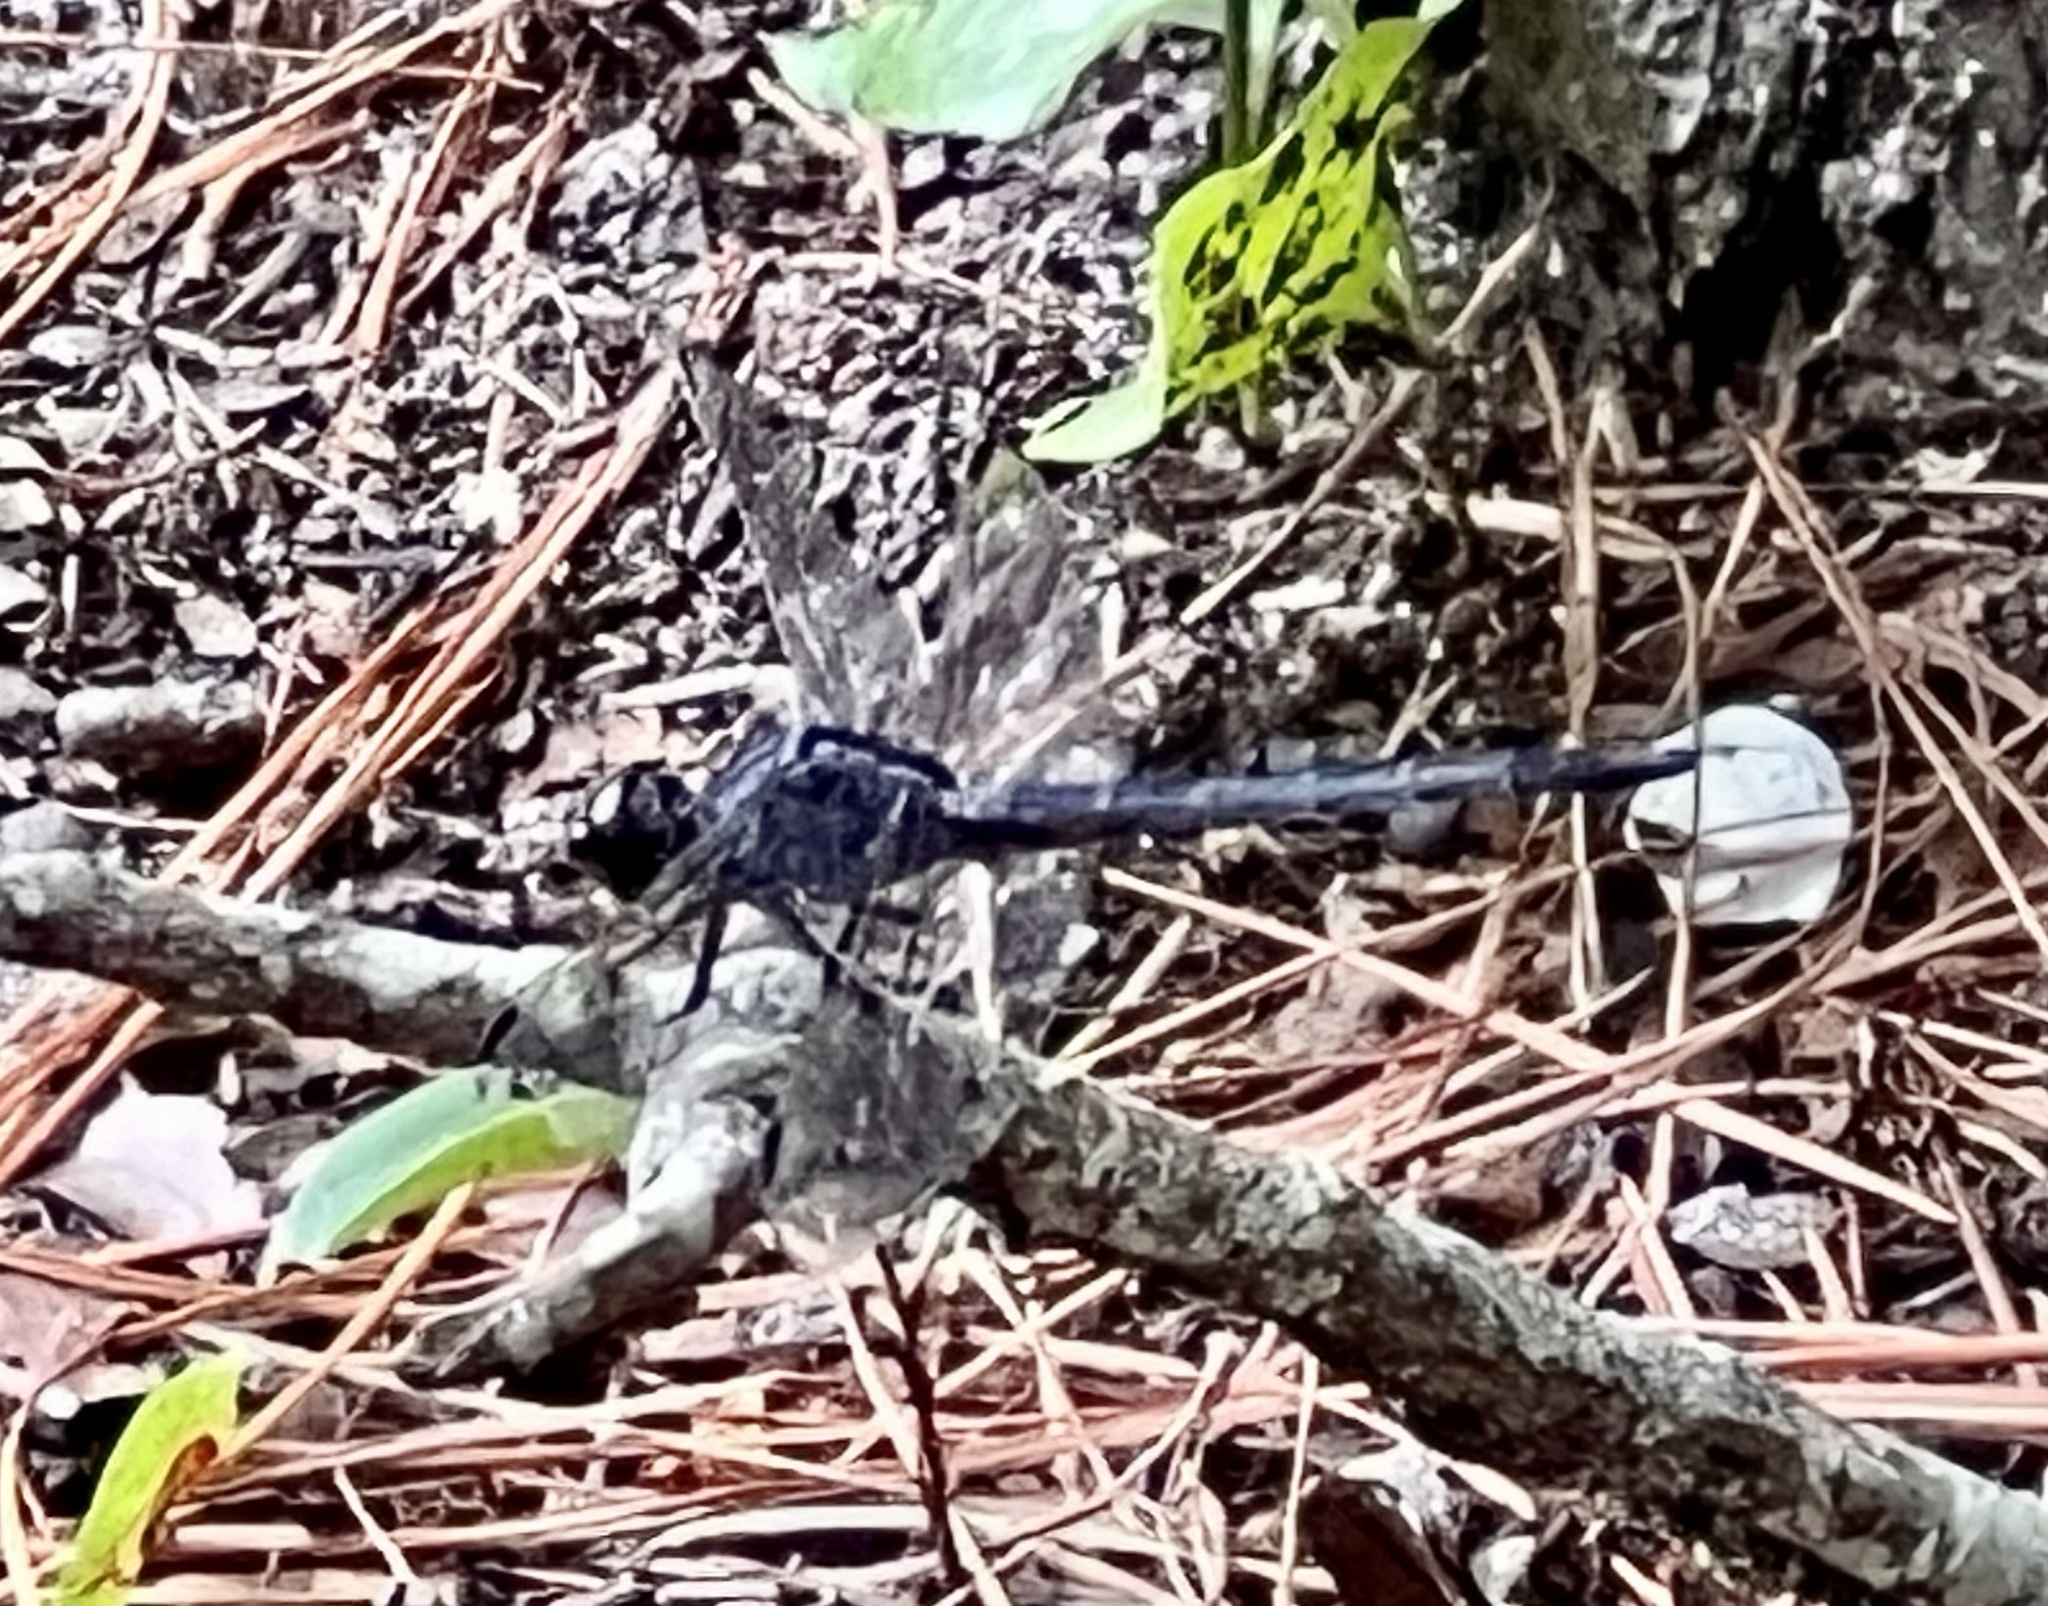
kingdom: Animalia
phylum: Arthropoda
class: Insecta
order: Odonata
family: Libellulidae
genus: Libellula
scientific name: Libellula incesta
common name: Slaty skimmer
